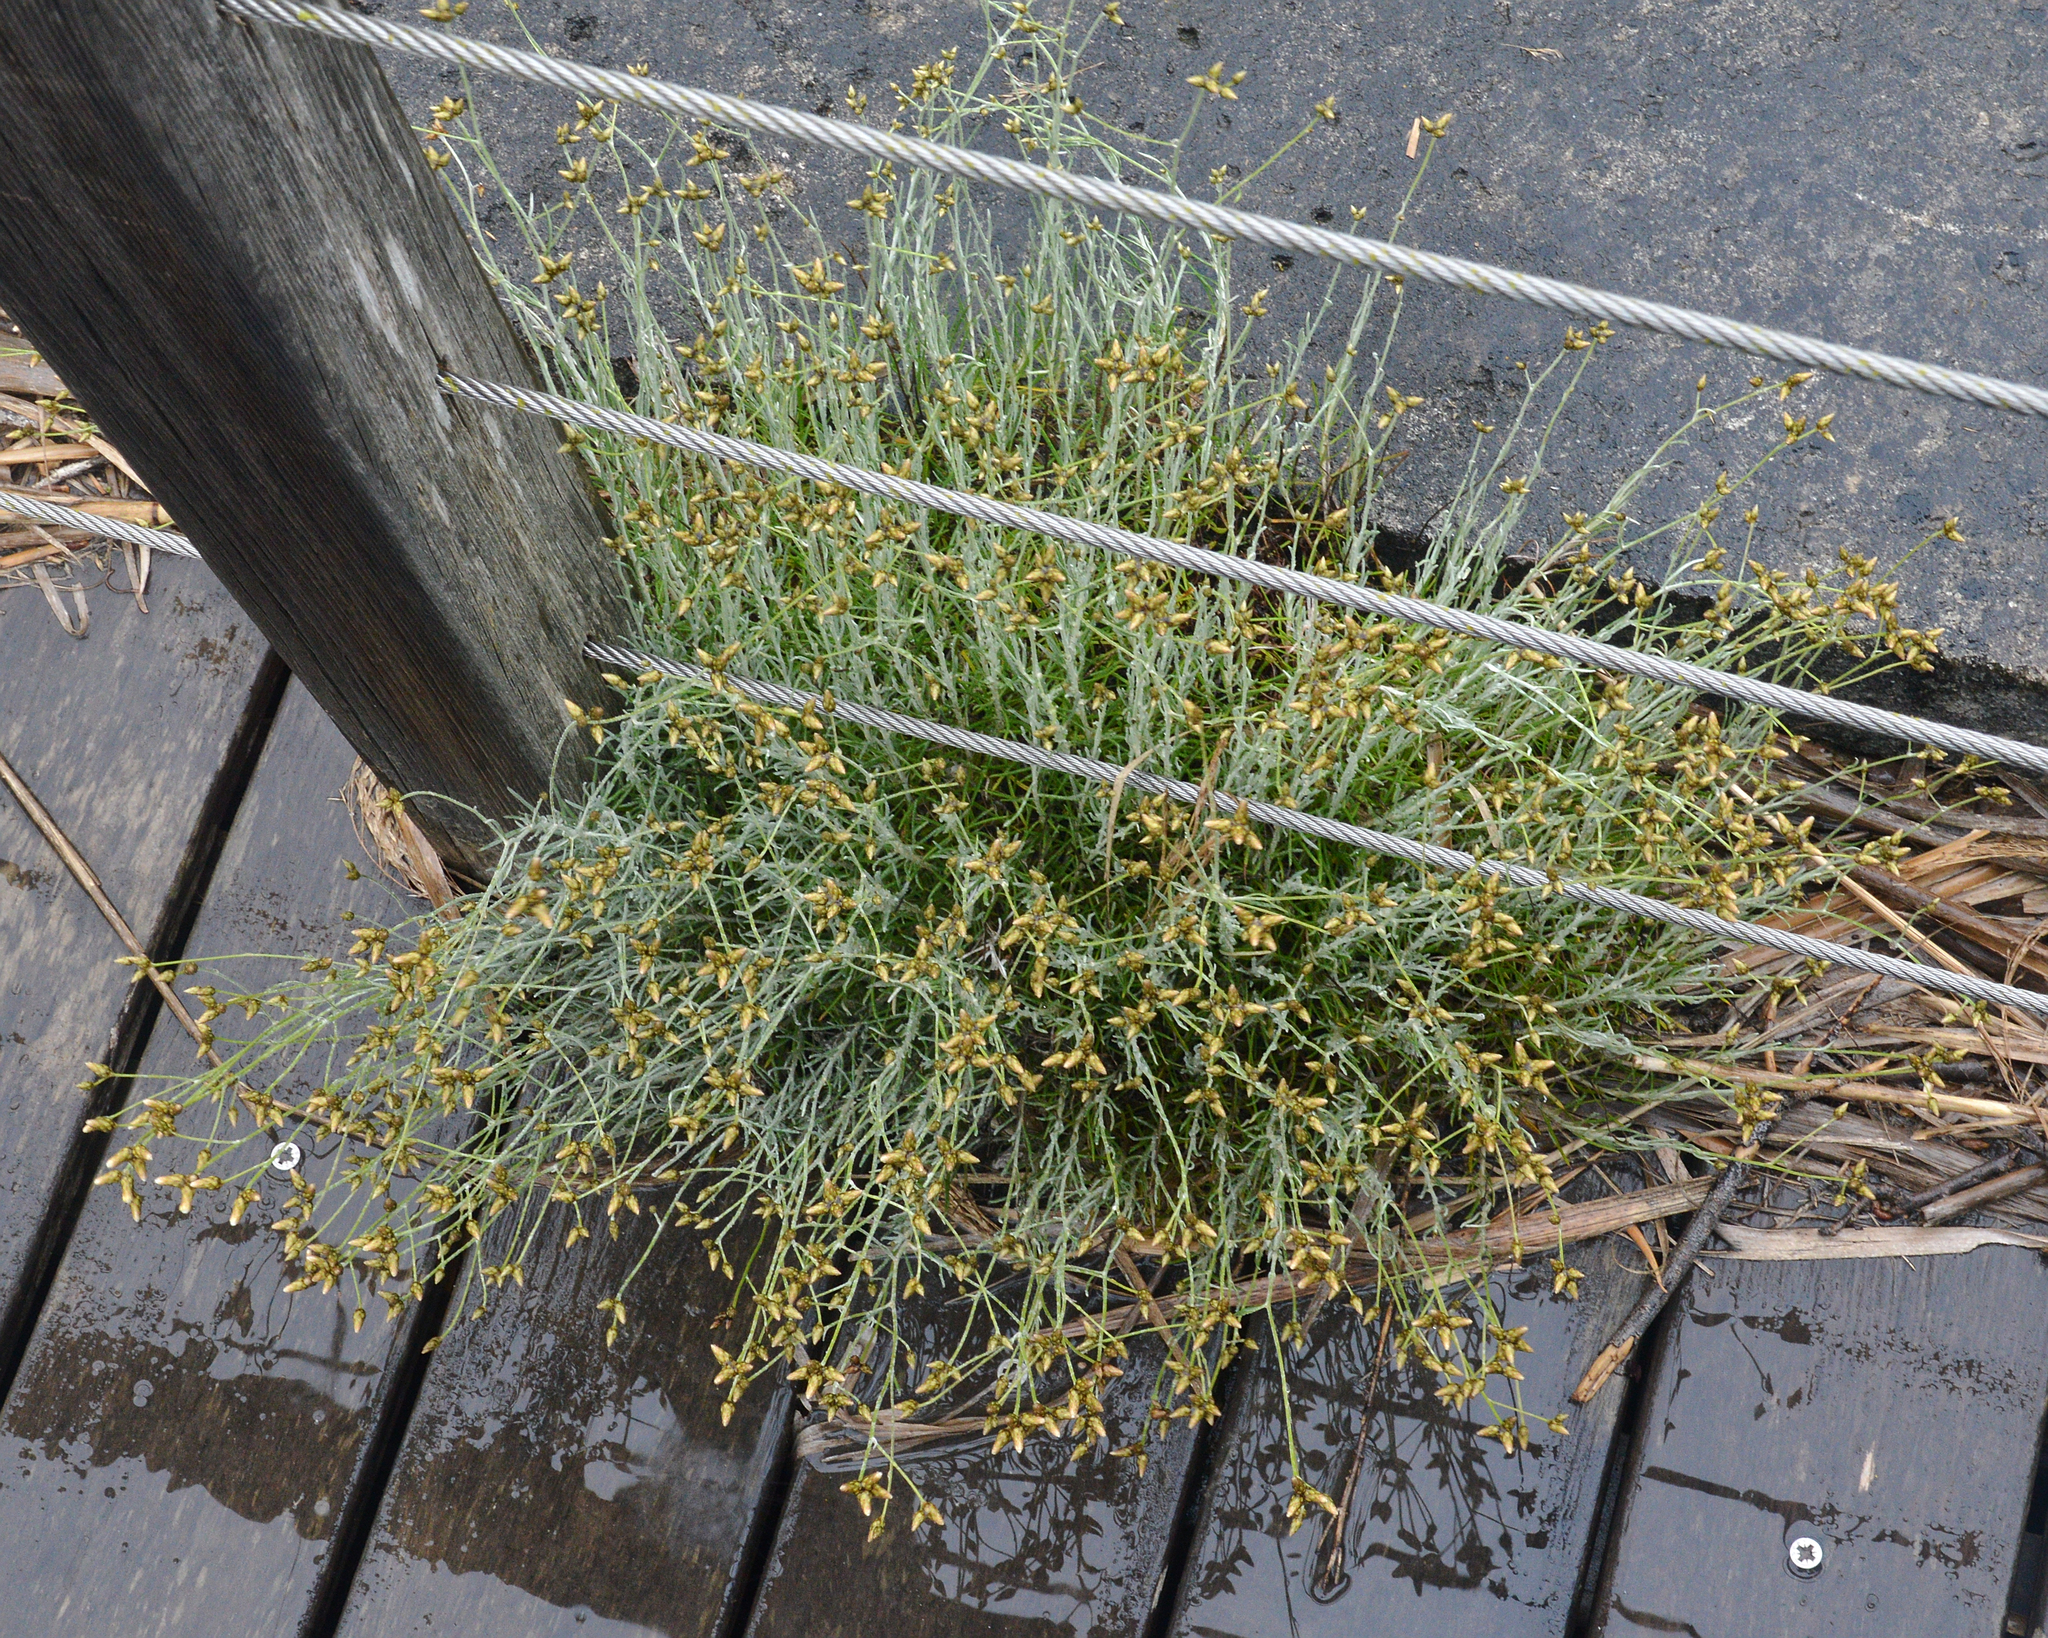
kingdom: Plantae
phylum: Tracheophyta
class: Magnoliopsida
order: Asterales
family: Asteraceae
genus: Phagnalon
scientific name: Phagnalon sordidum
